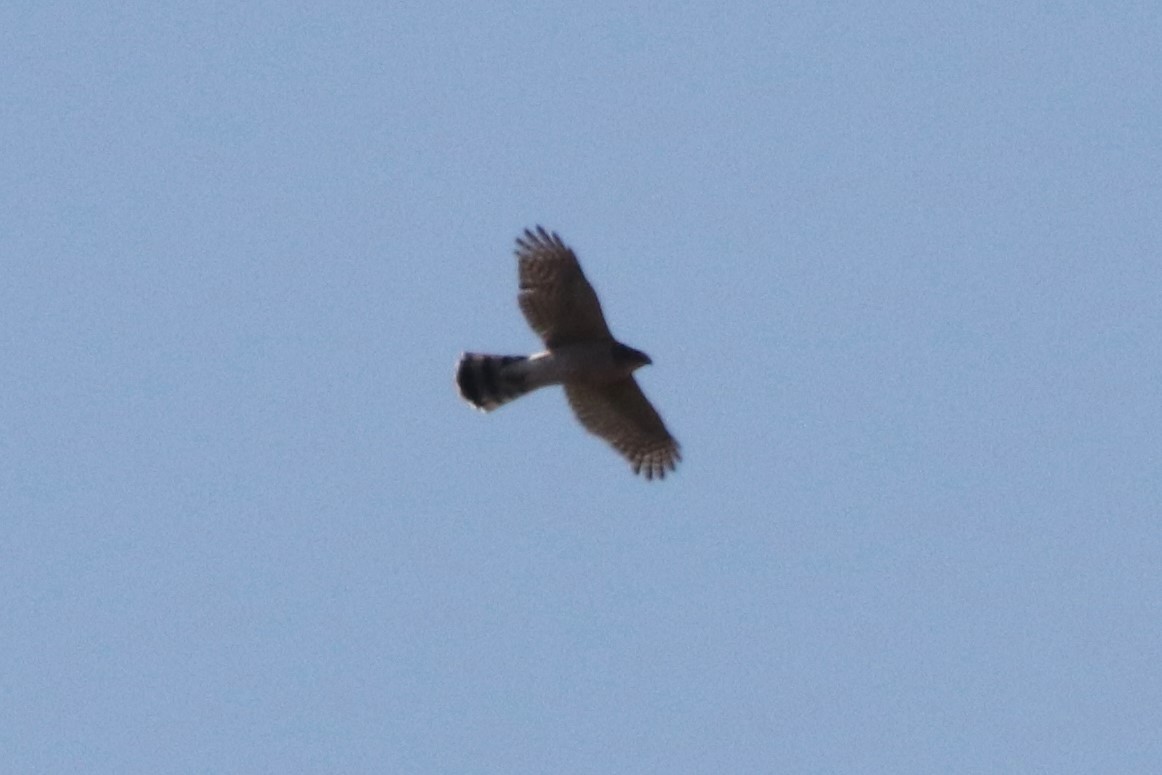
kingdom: Animalia
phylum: Chordata
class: Aves
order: Accipitriformes
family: Accipitridae
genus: Accipiter
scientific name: Accipiter cooperii
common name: Cooper's hawk
